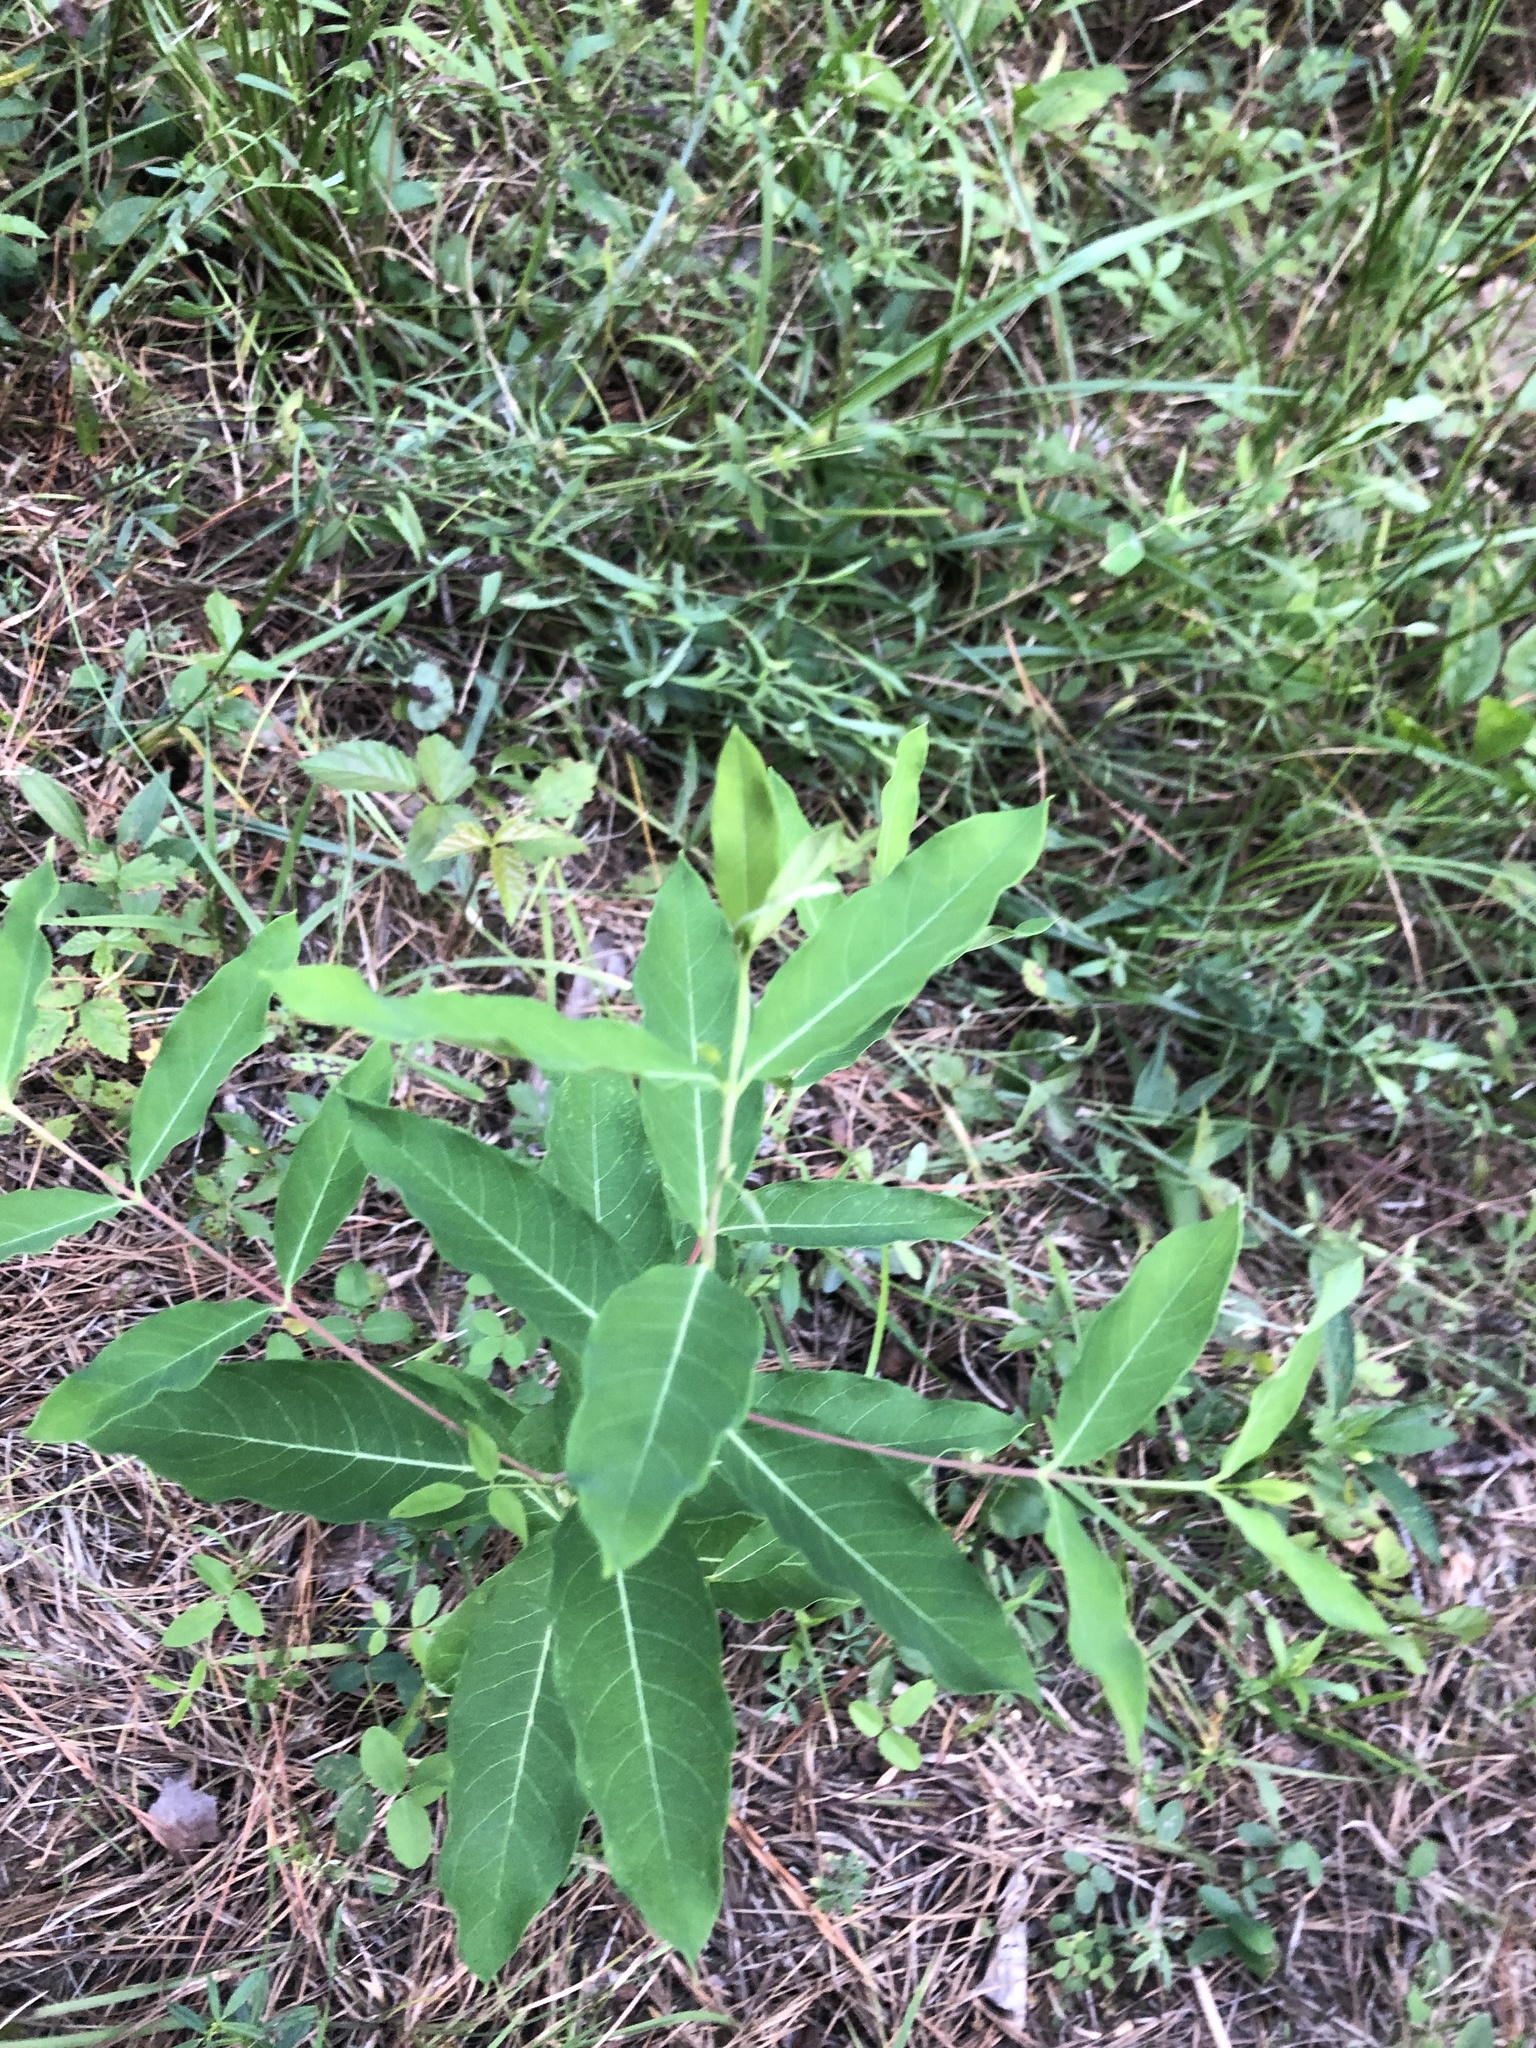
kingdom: Plantae
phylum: Tracheophyta
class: Magnoliopsida
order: Gentianales
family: Apocynaceae
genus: Apocynum
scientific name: Apocynum cannabinum
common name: Hemp dogbane
